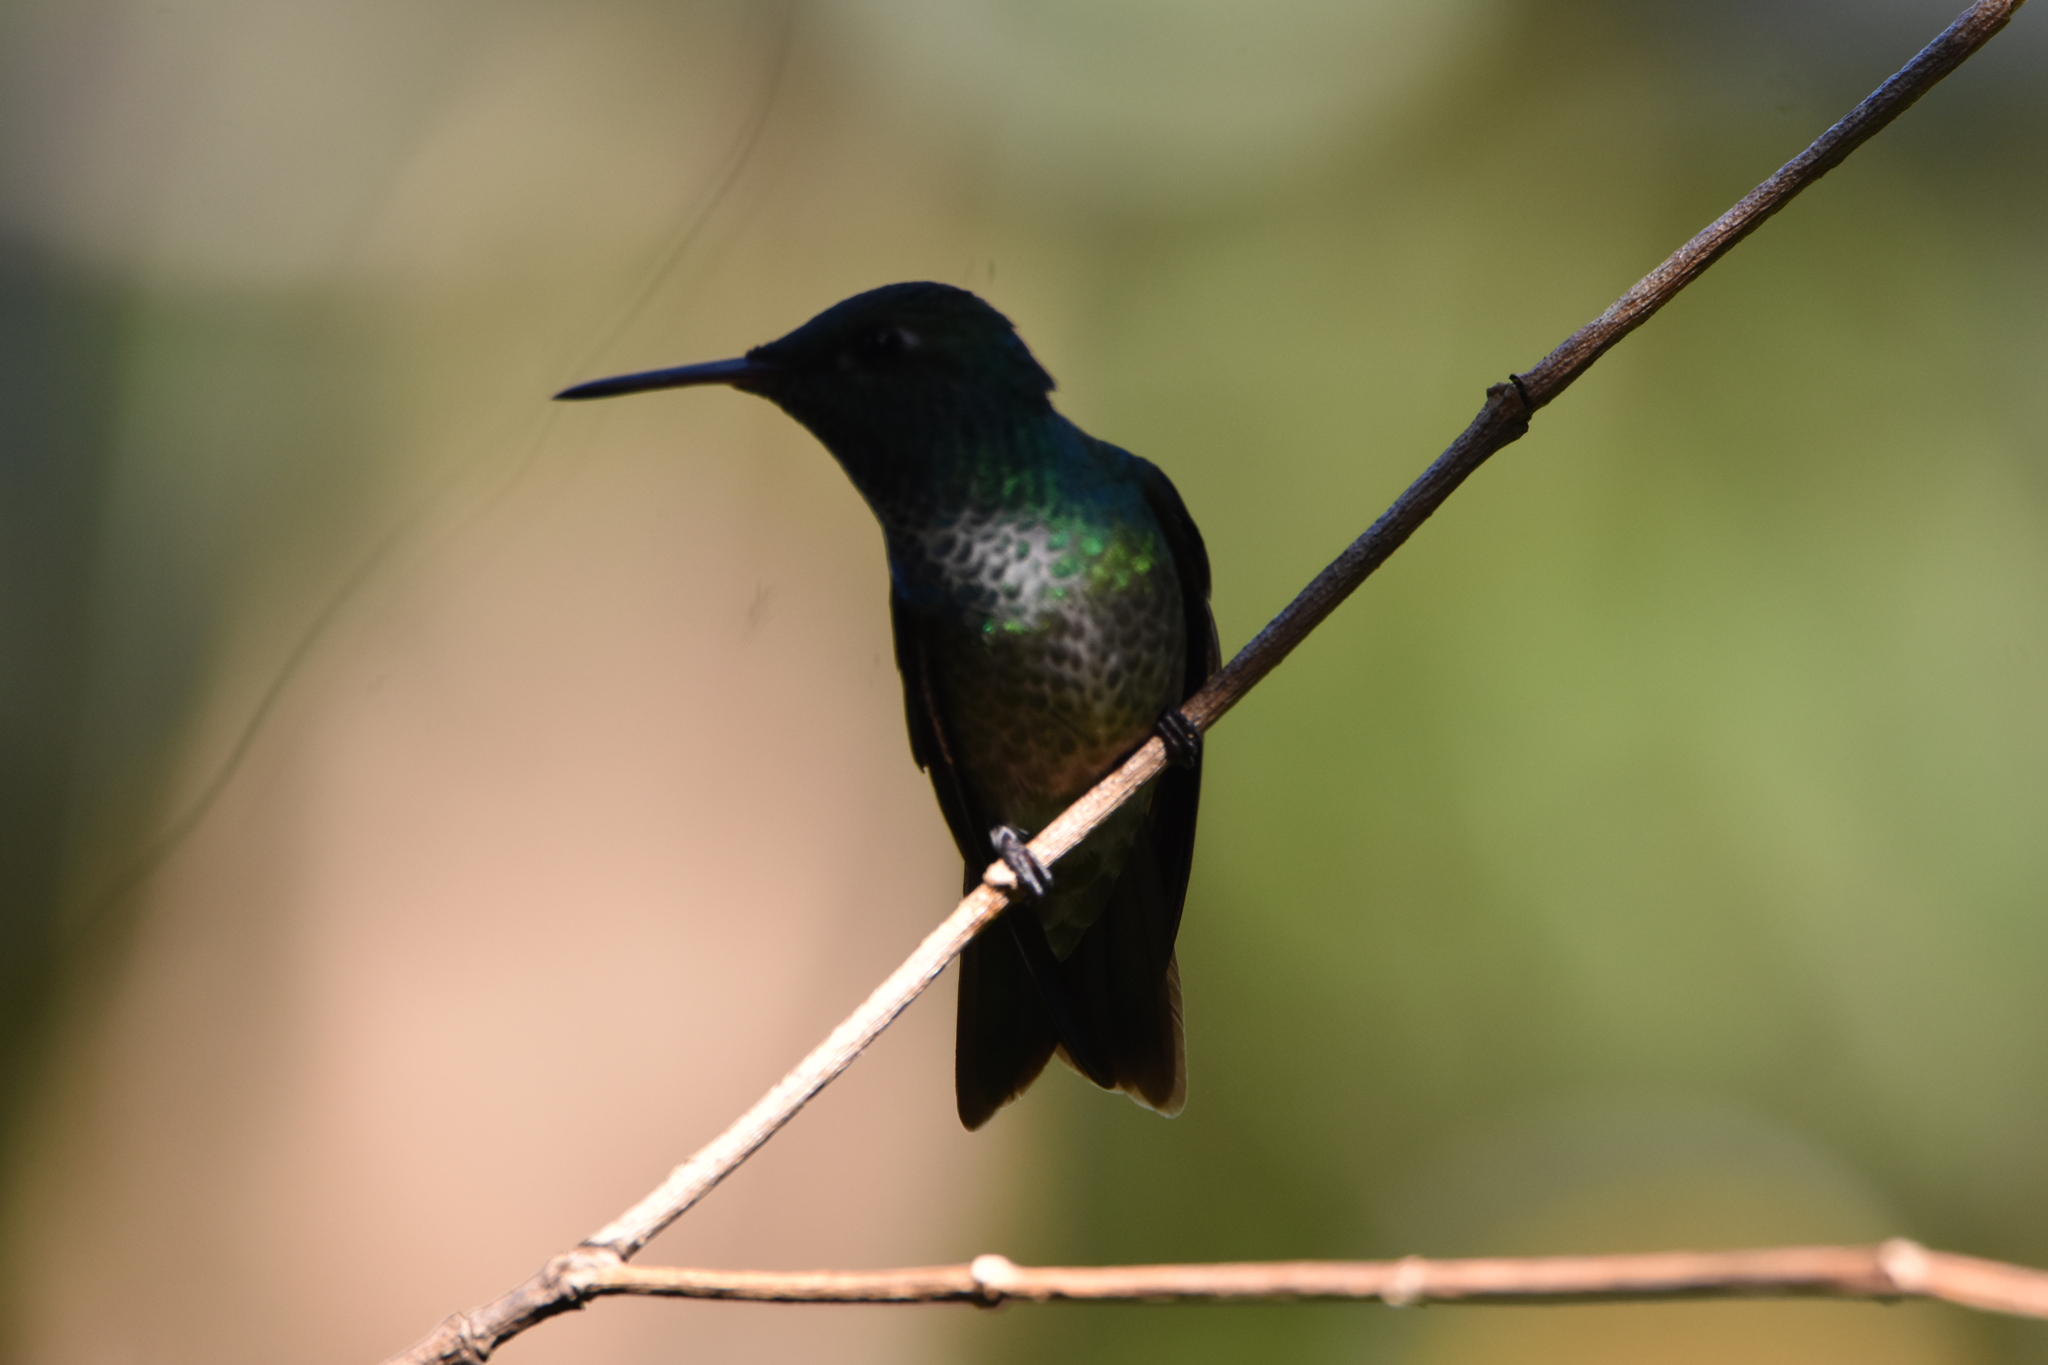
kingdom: Animalia
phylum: Chordata
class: Aves
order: Apodiformes
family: Trochilidae
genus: Chrysuronia
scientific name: Chrysuronia versicolor
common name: Versicolored emerald
